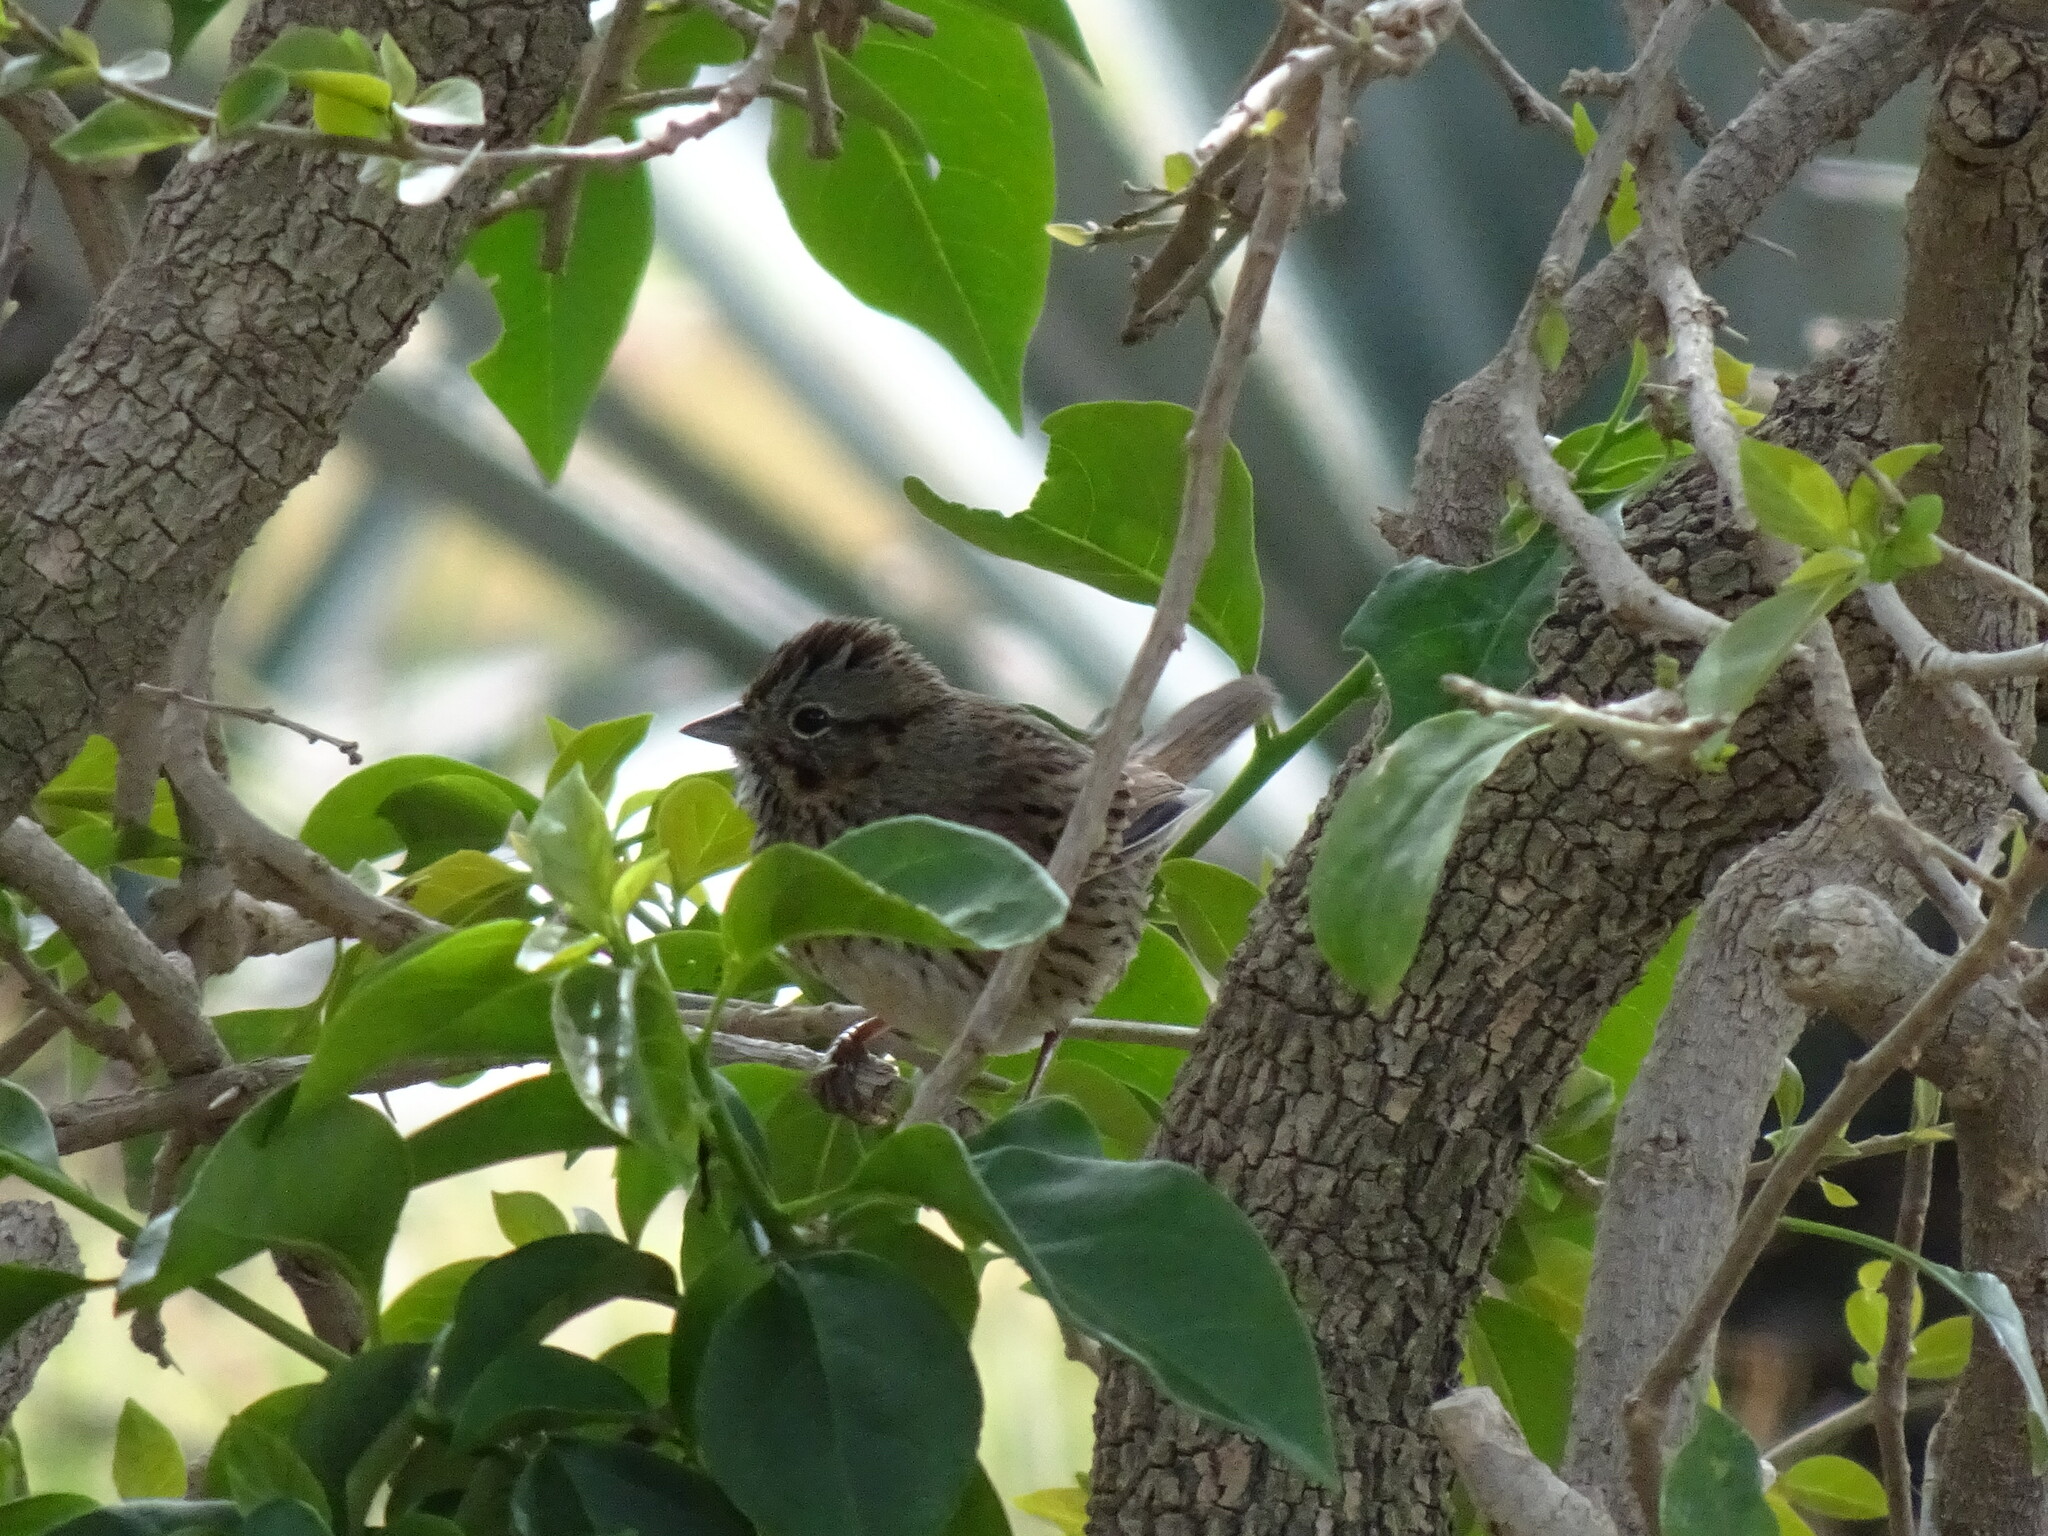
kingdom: Animalia
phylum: Chordata
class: Aves
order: Passeriformes
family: Passerellidae
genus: Melospiza
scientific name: Melospiza lincolnii
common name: Lincoln's sparrow
